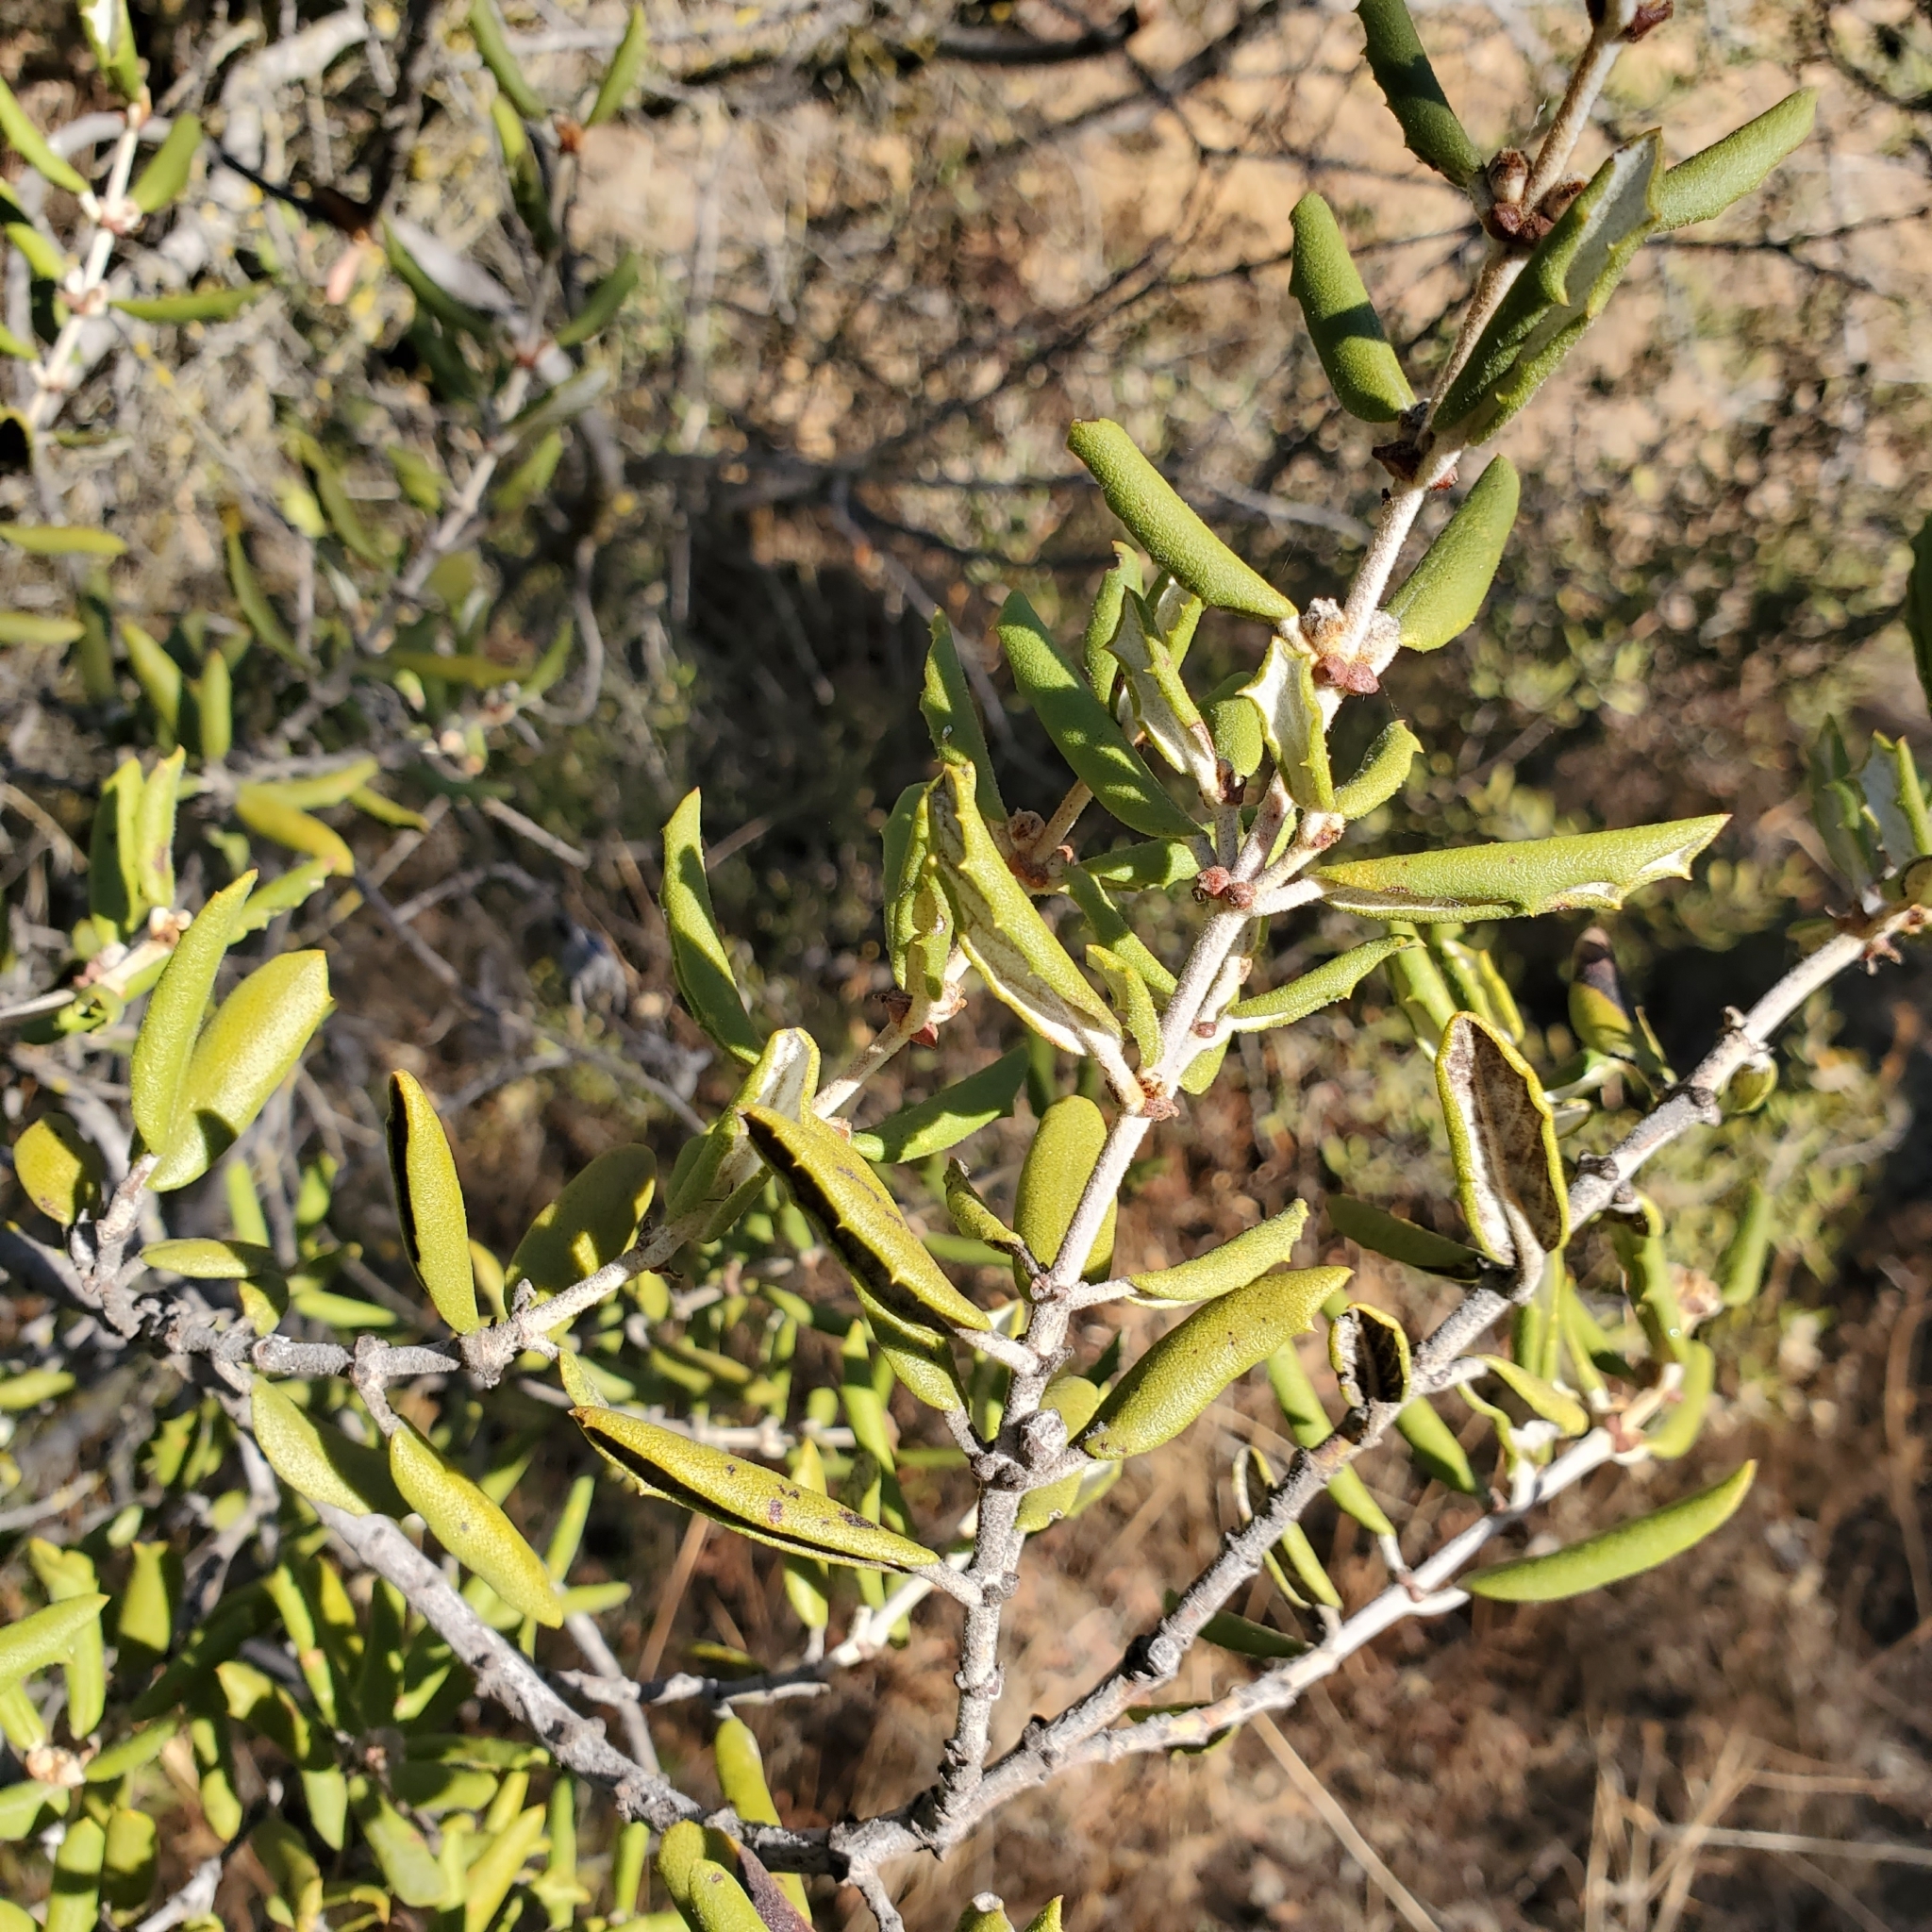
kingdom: Plantae
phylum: Tracheophyta
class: Magnoliopsida
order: Rosales
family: Rhamnaceae
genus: Ceanothus
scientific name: Ceanothus crassifolius
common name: Hoaryleaf ceanothus
